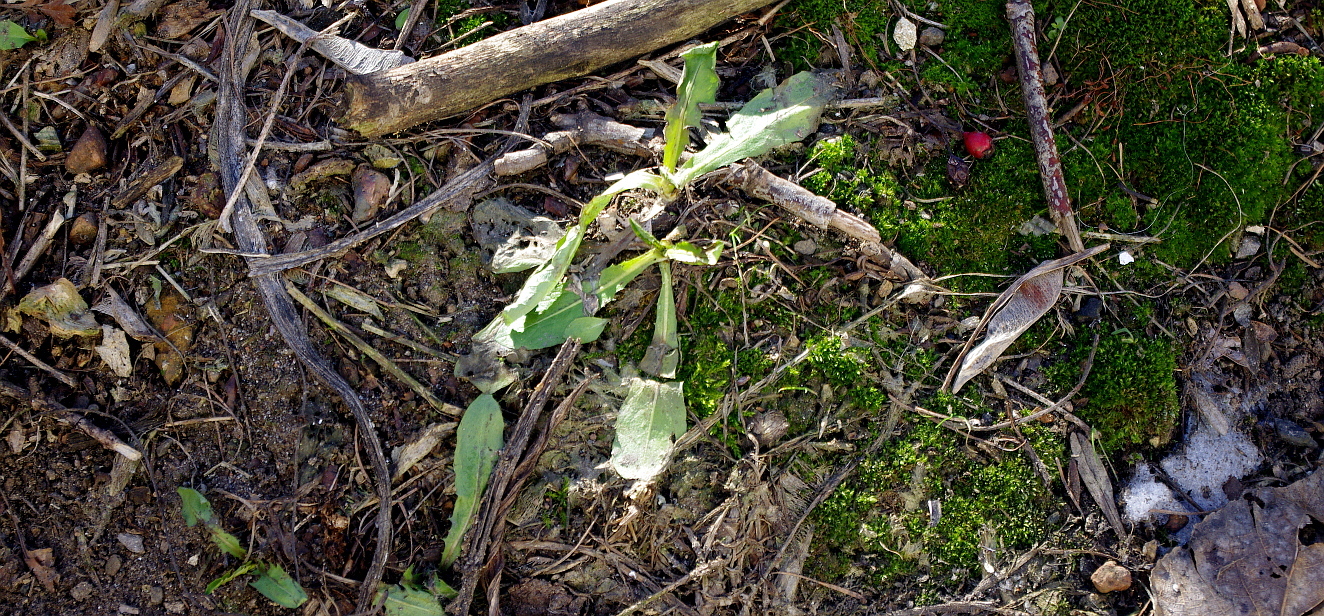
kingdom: Plantae
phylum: Tracheophyta
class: Magnoliopsida
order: Asterales
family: Asteraceae
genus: Taraxacum
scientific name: Taraxacum officinale
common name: Common dandelion
